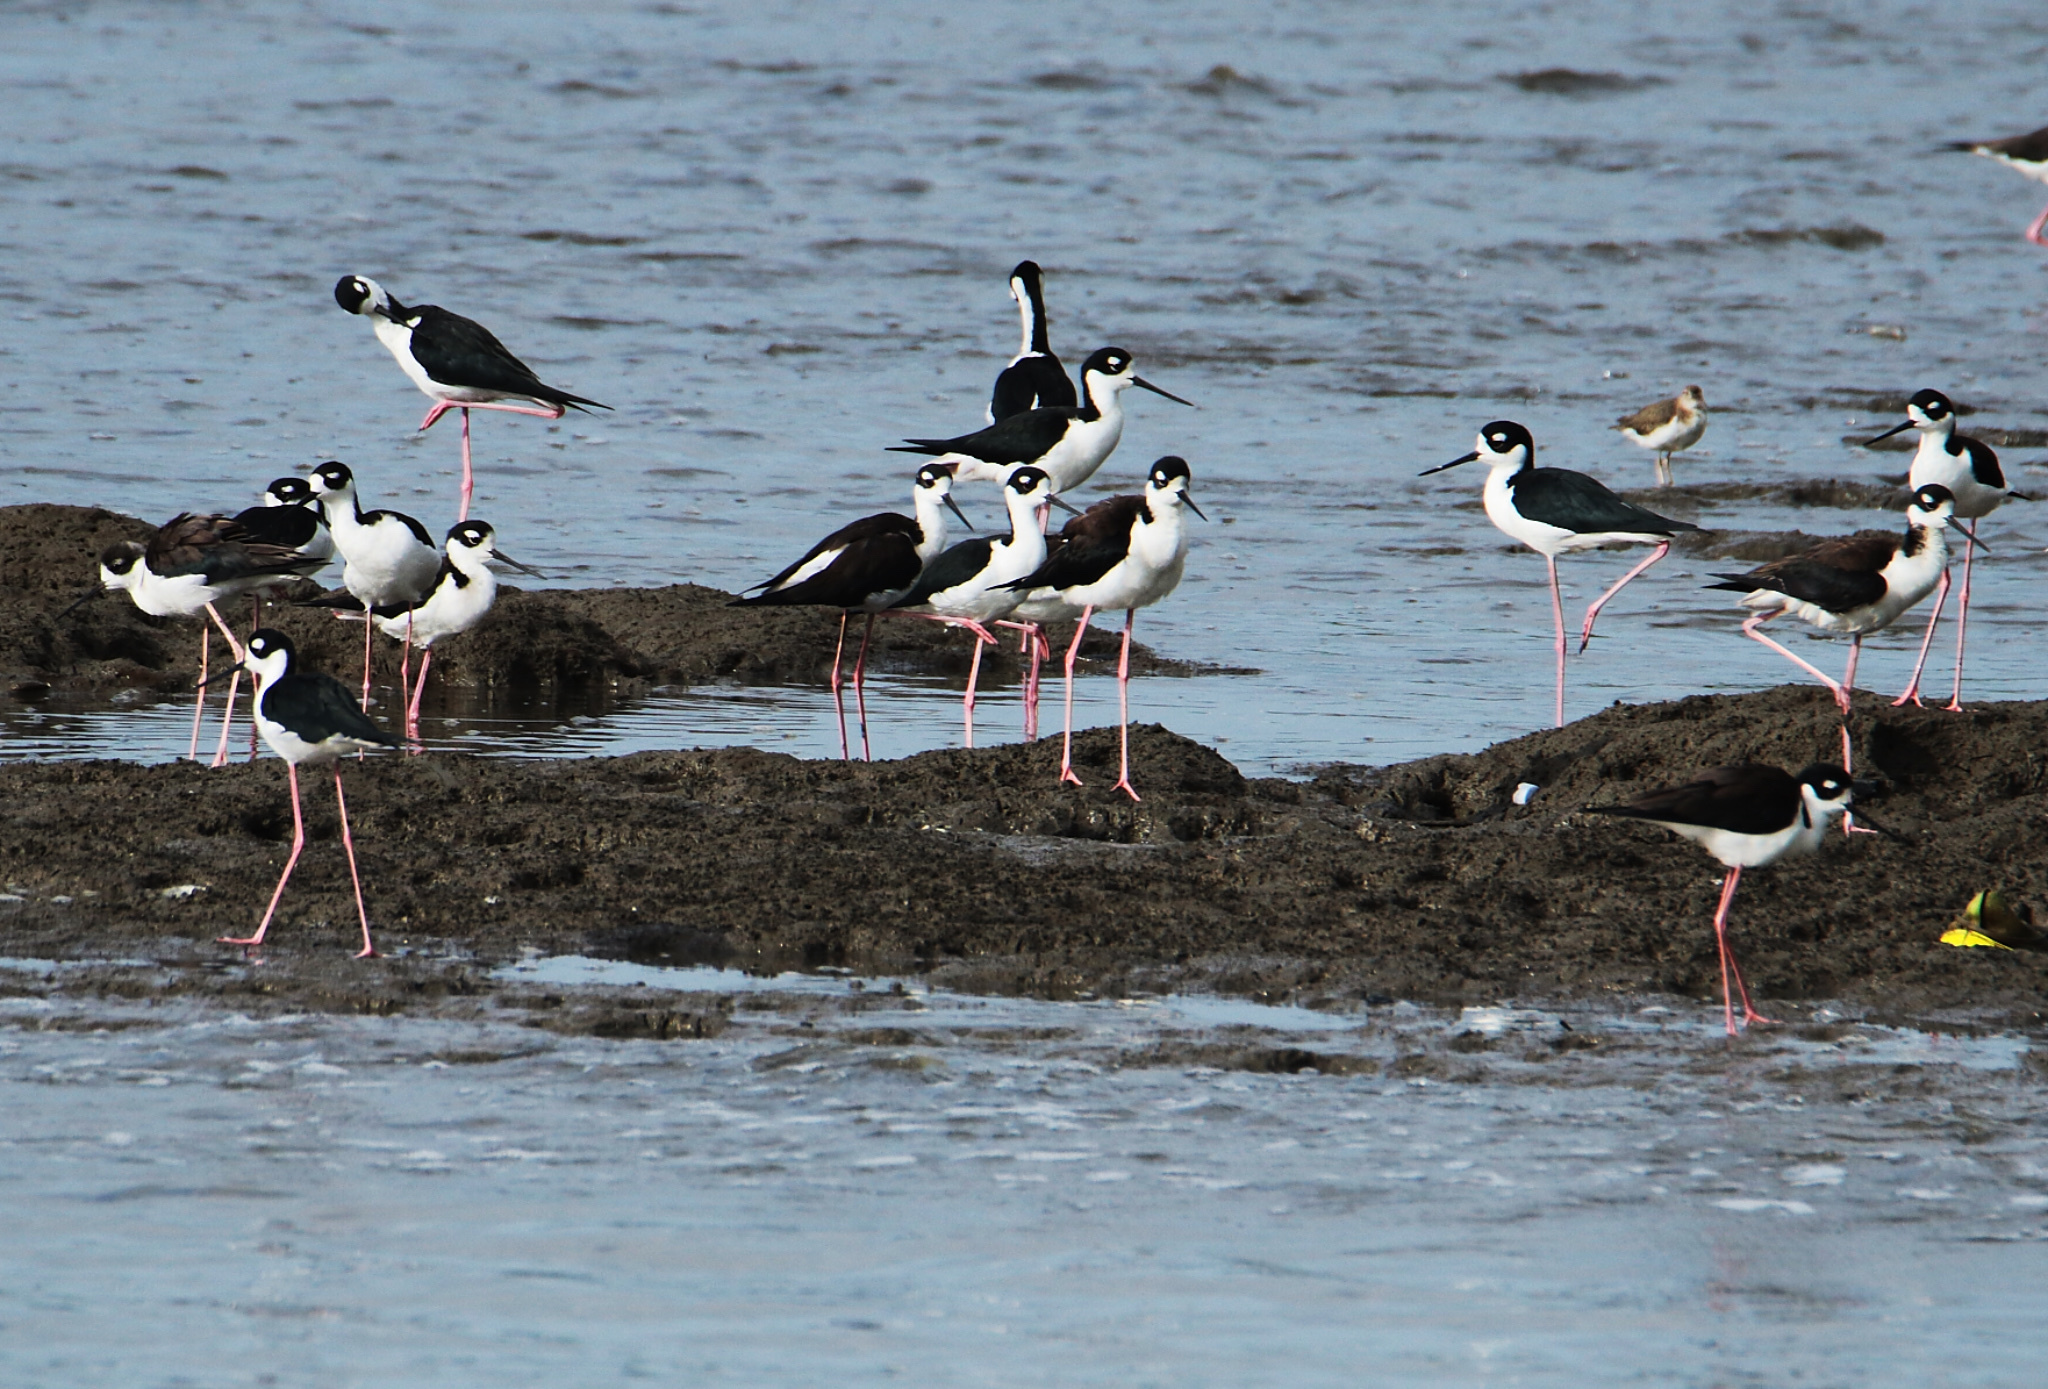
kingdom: Animalia
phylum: Chordata
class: Aves
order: Charadriiformes
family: Recurvirostridae
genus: Himantopus
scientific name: Himantopus mexicanus
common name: Black-necked stilt
